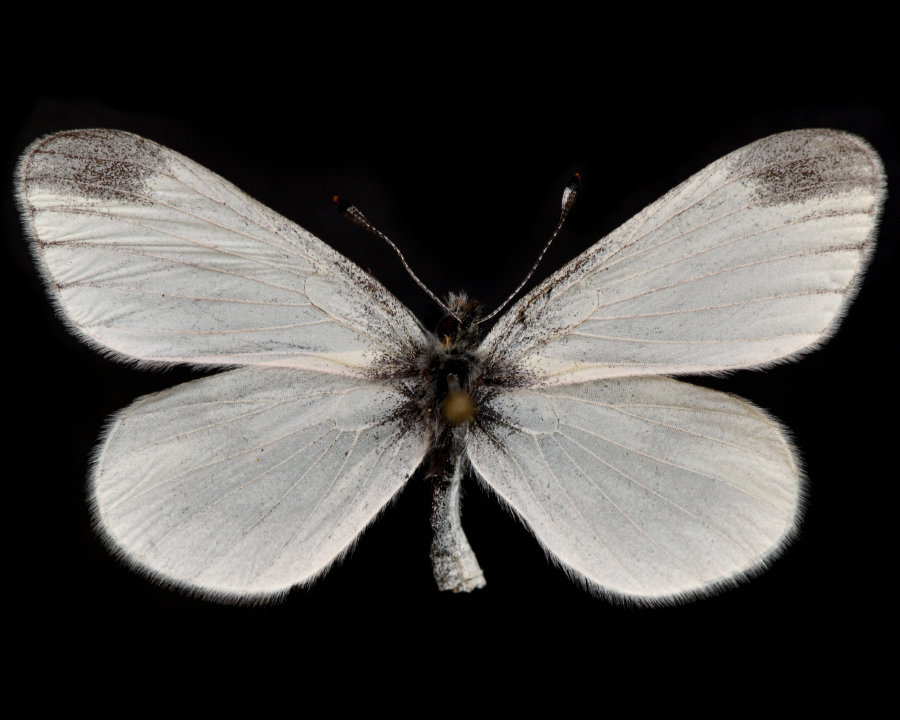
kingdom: Animalia
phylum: Arthropoda
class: Insecta
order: Lepidoptera
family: Pieridae
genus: Leptidea
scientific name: Leptidea juvernica
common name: Cryptic wood white
